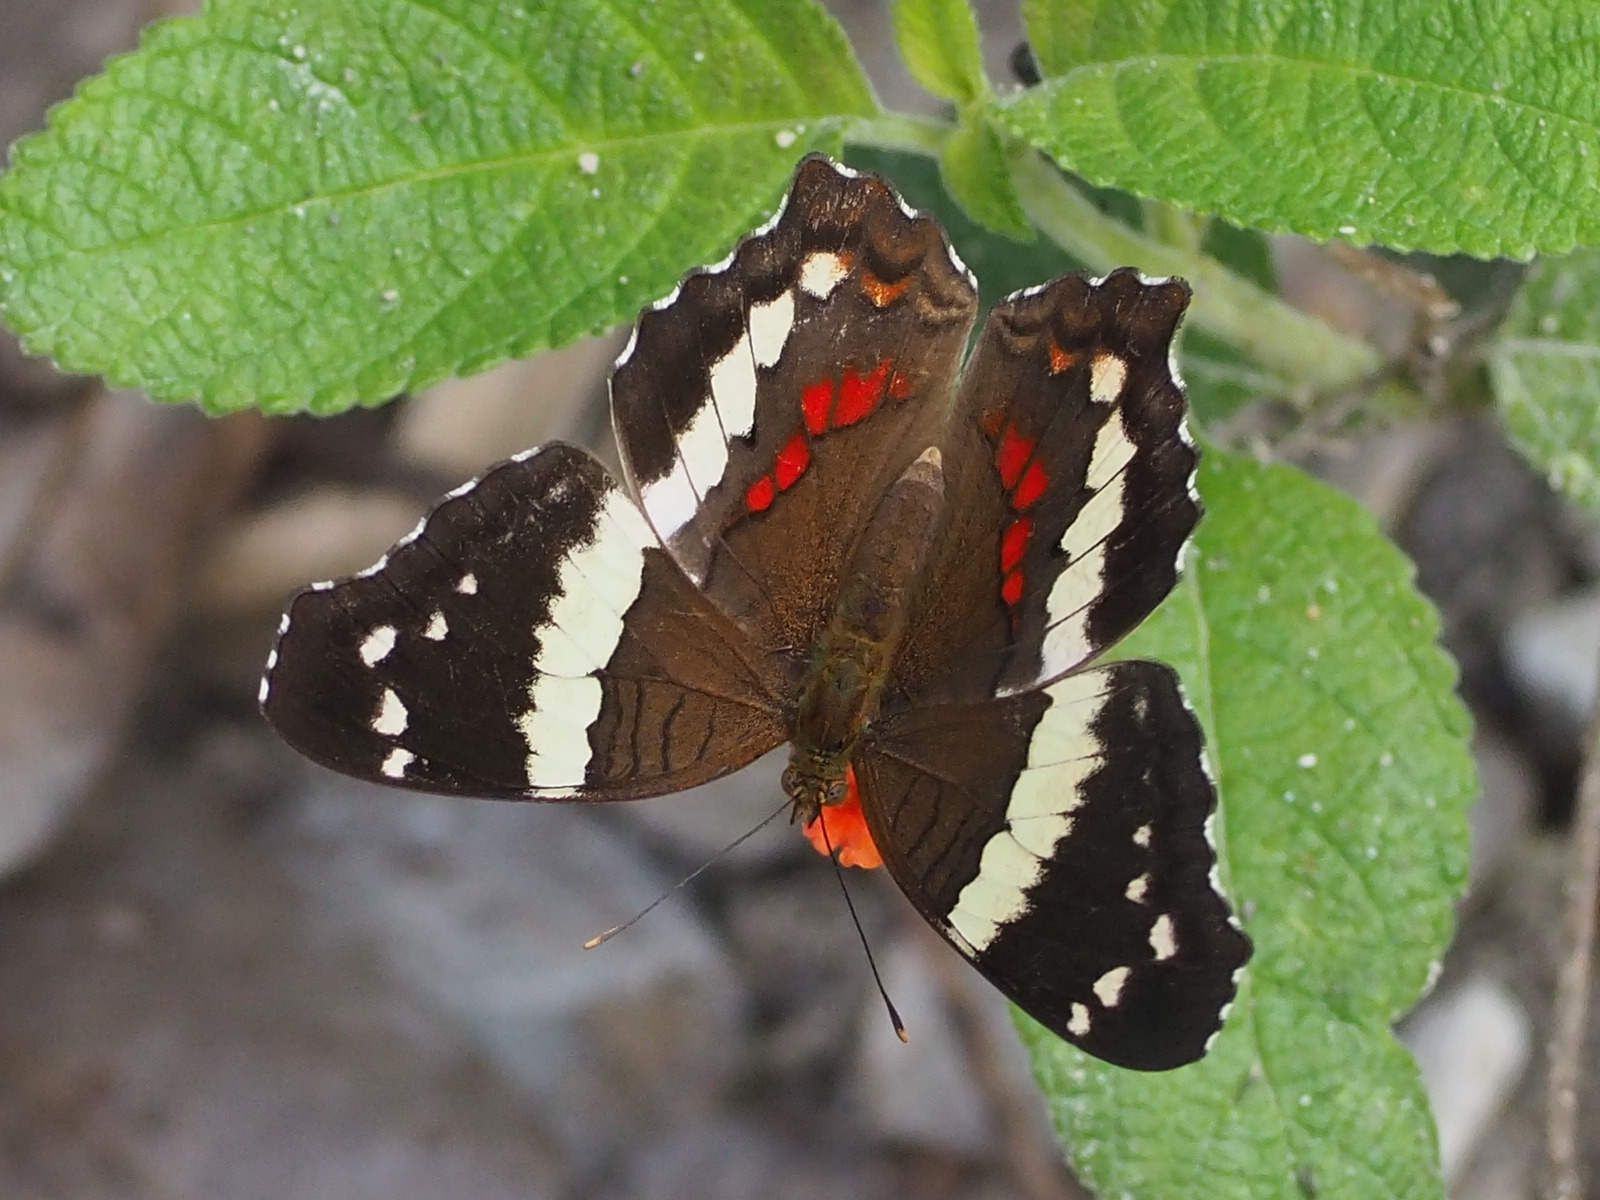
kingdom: Animalia
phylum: Arthropoda
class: Insecta
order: Lepidoptera
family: Nymphalidae
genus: Anartia
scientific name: Anartia fatima
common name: Banded peacock
